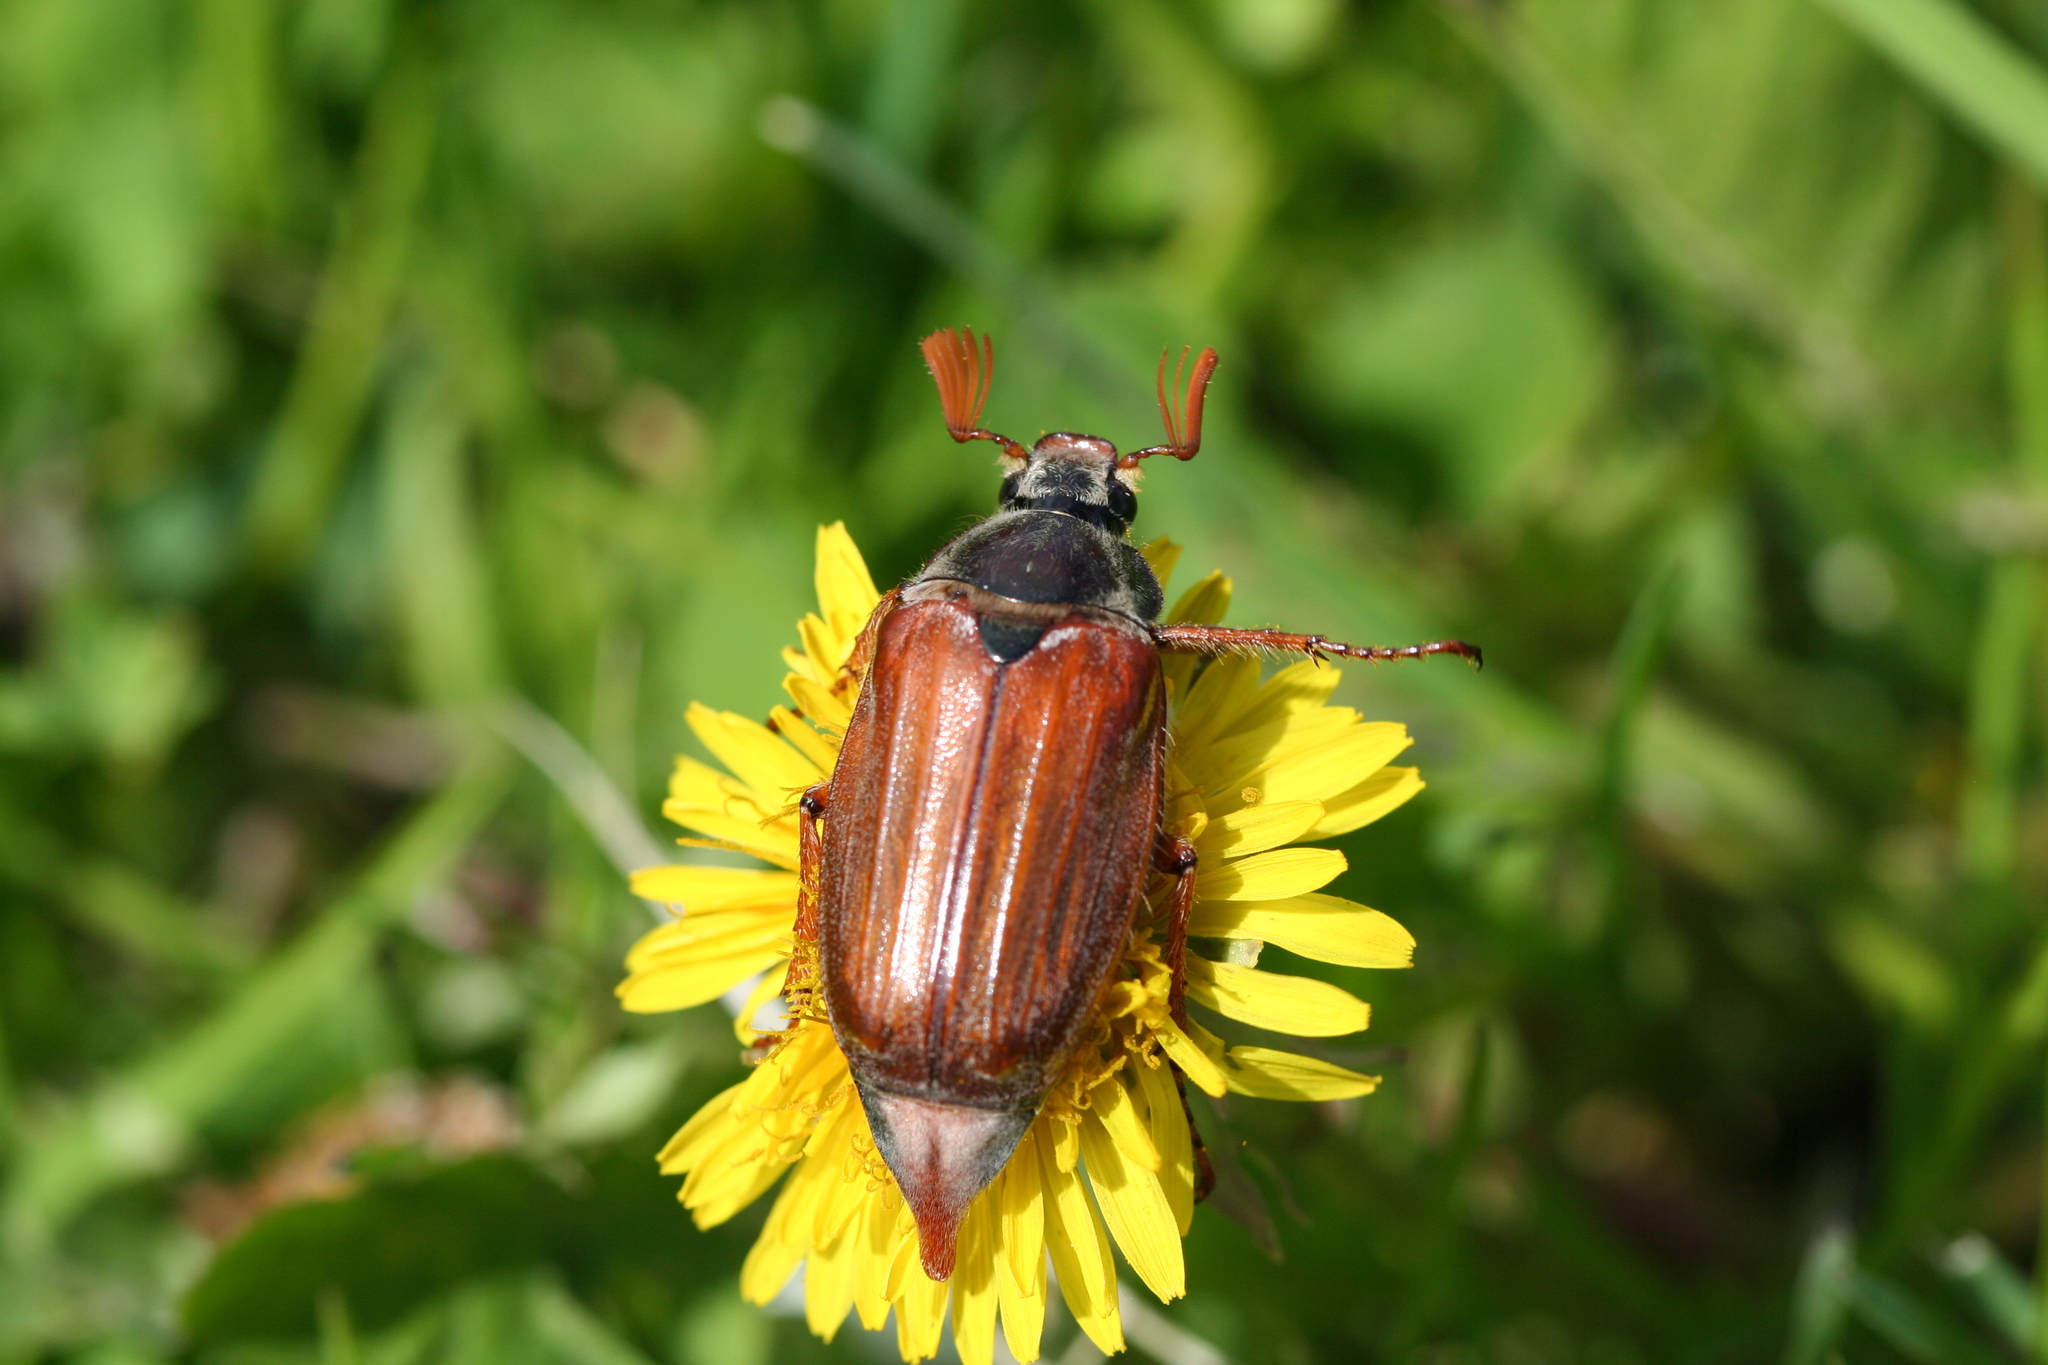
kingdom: Animalia
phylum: Arthropoda
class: Insecta
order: Coleoptera
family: Scarabaeidae
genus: Melolontha
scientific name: Melolontha melolontha
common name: Cockchafer maybeetle
